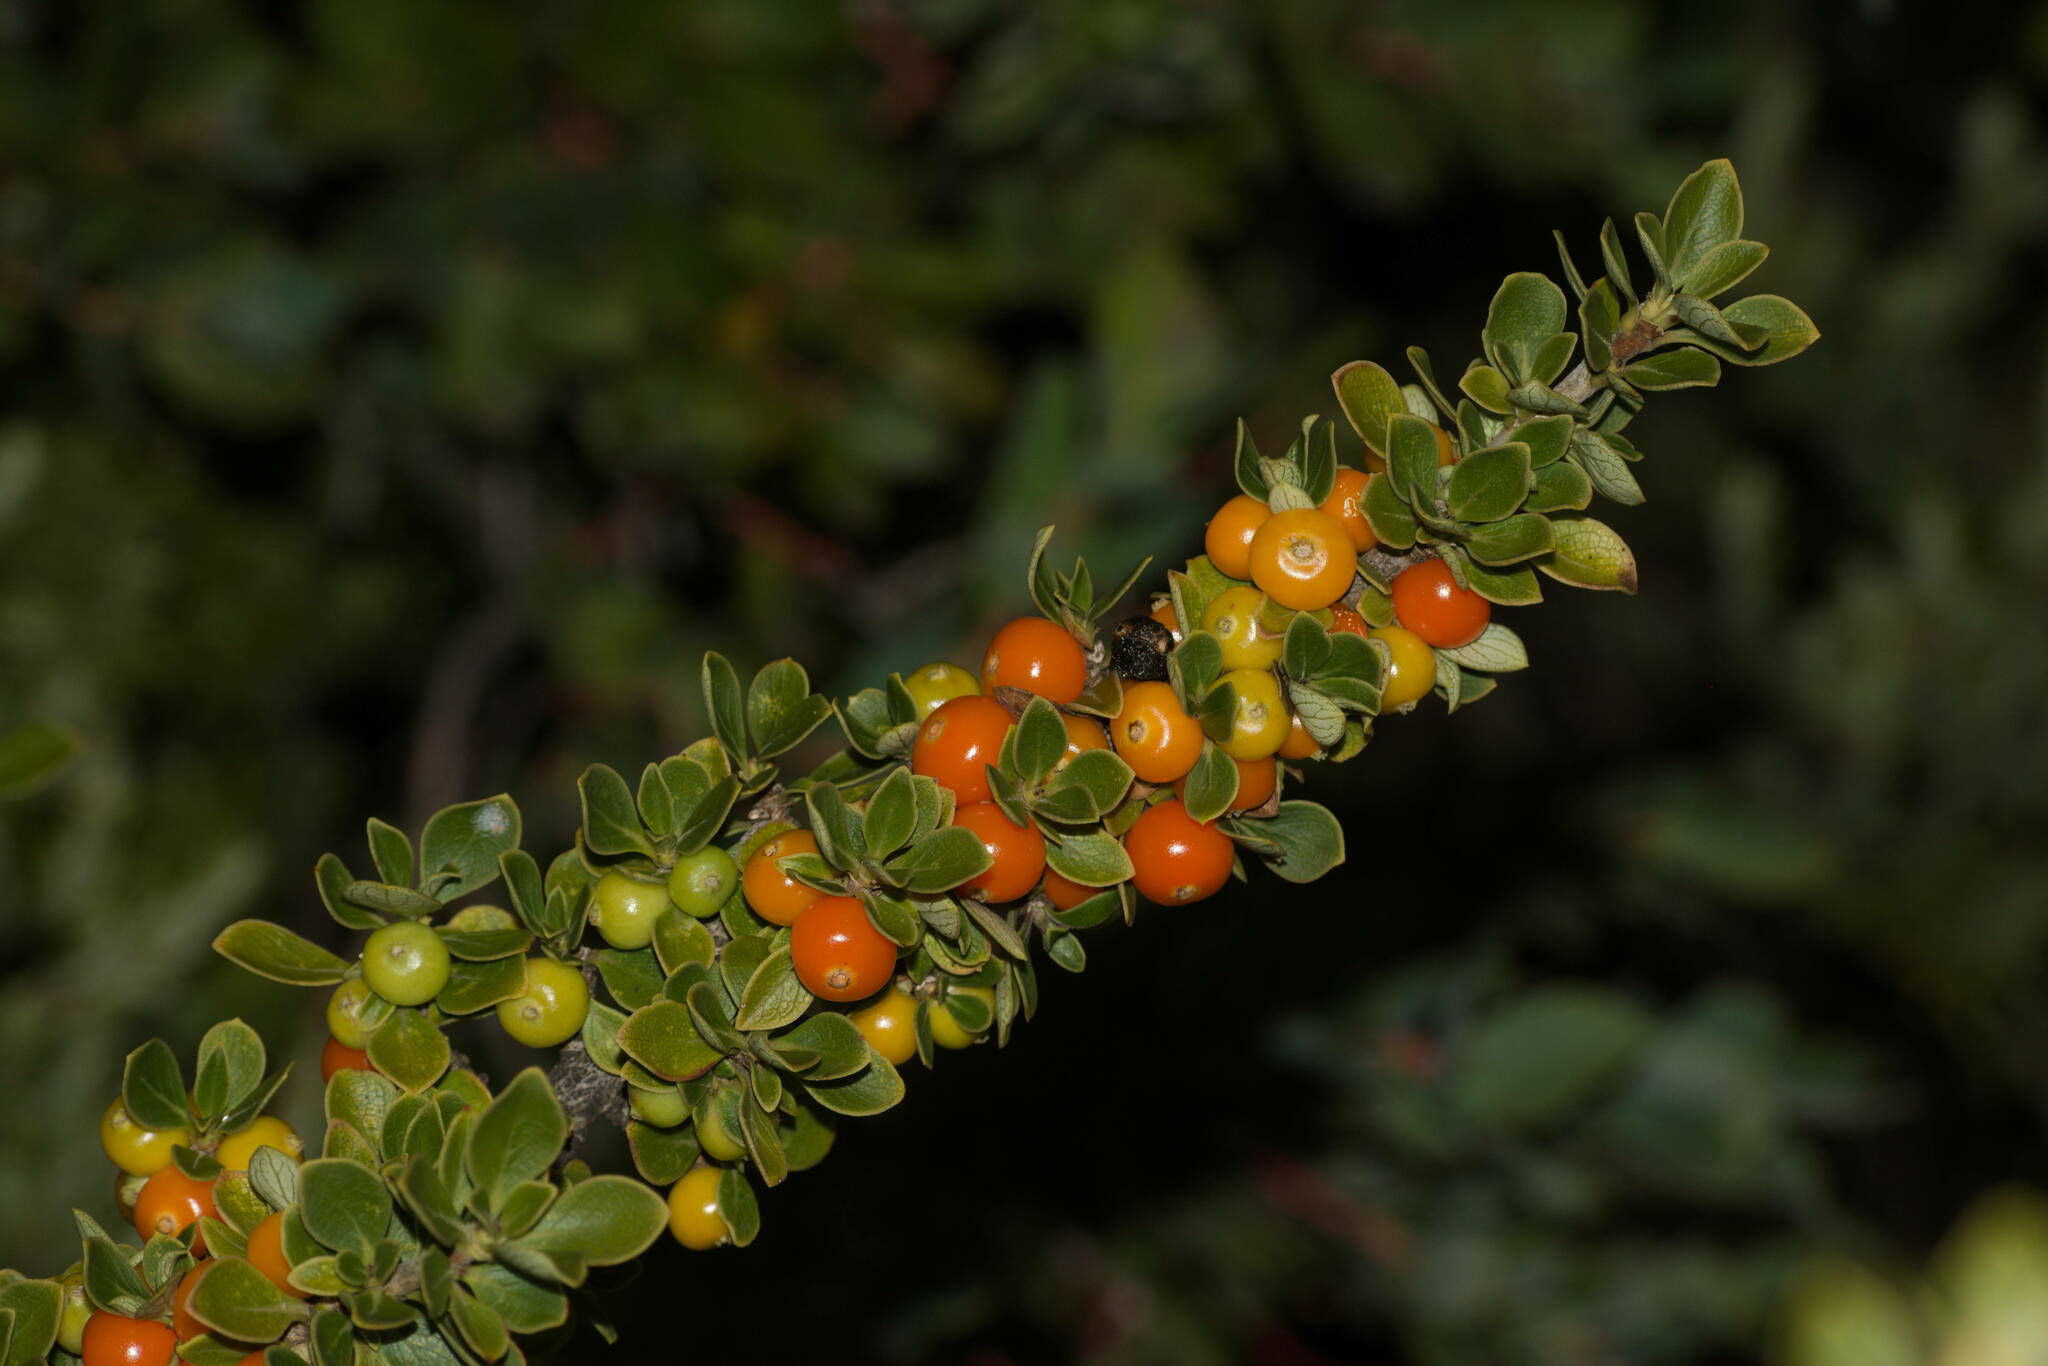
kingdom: Plantae
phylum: Tracheophyta
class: Magnoliopsida
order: Gentianales
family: Rubiaceae
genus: Coprosma
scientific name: Coprosma montana
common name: Alpine mirror plant
